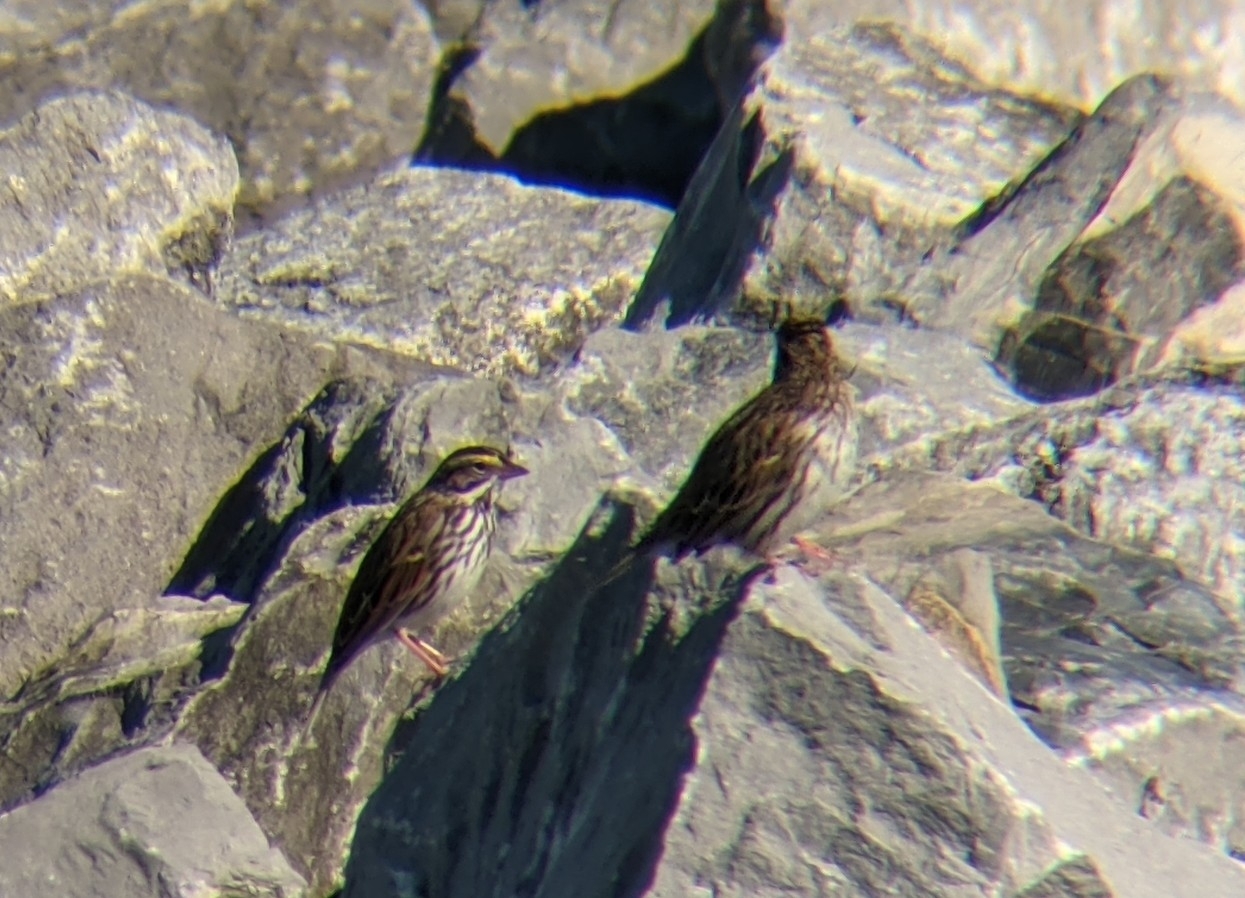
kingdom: Animalia
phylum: Chordata
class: Aves
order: Passeriformes
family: Passerellidae
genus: Passerculus
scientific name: Passerculus sandwichensis
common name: Savannah sparrow
